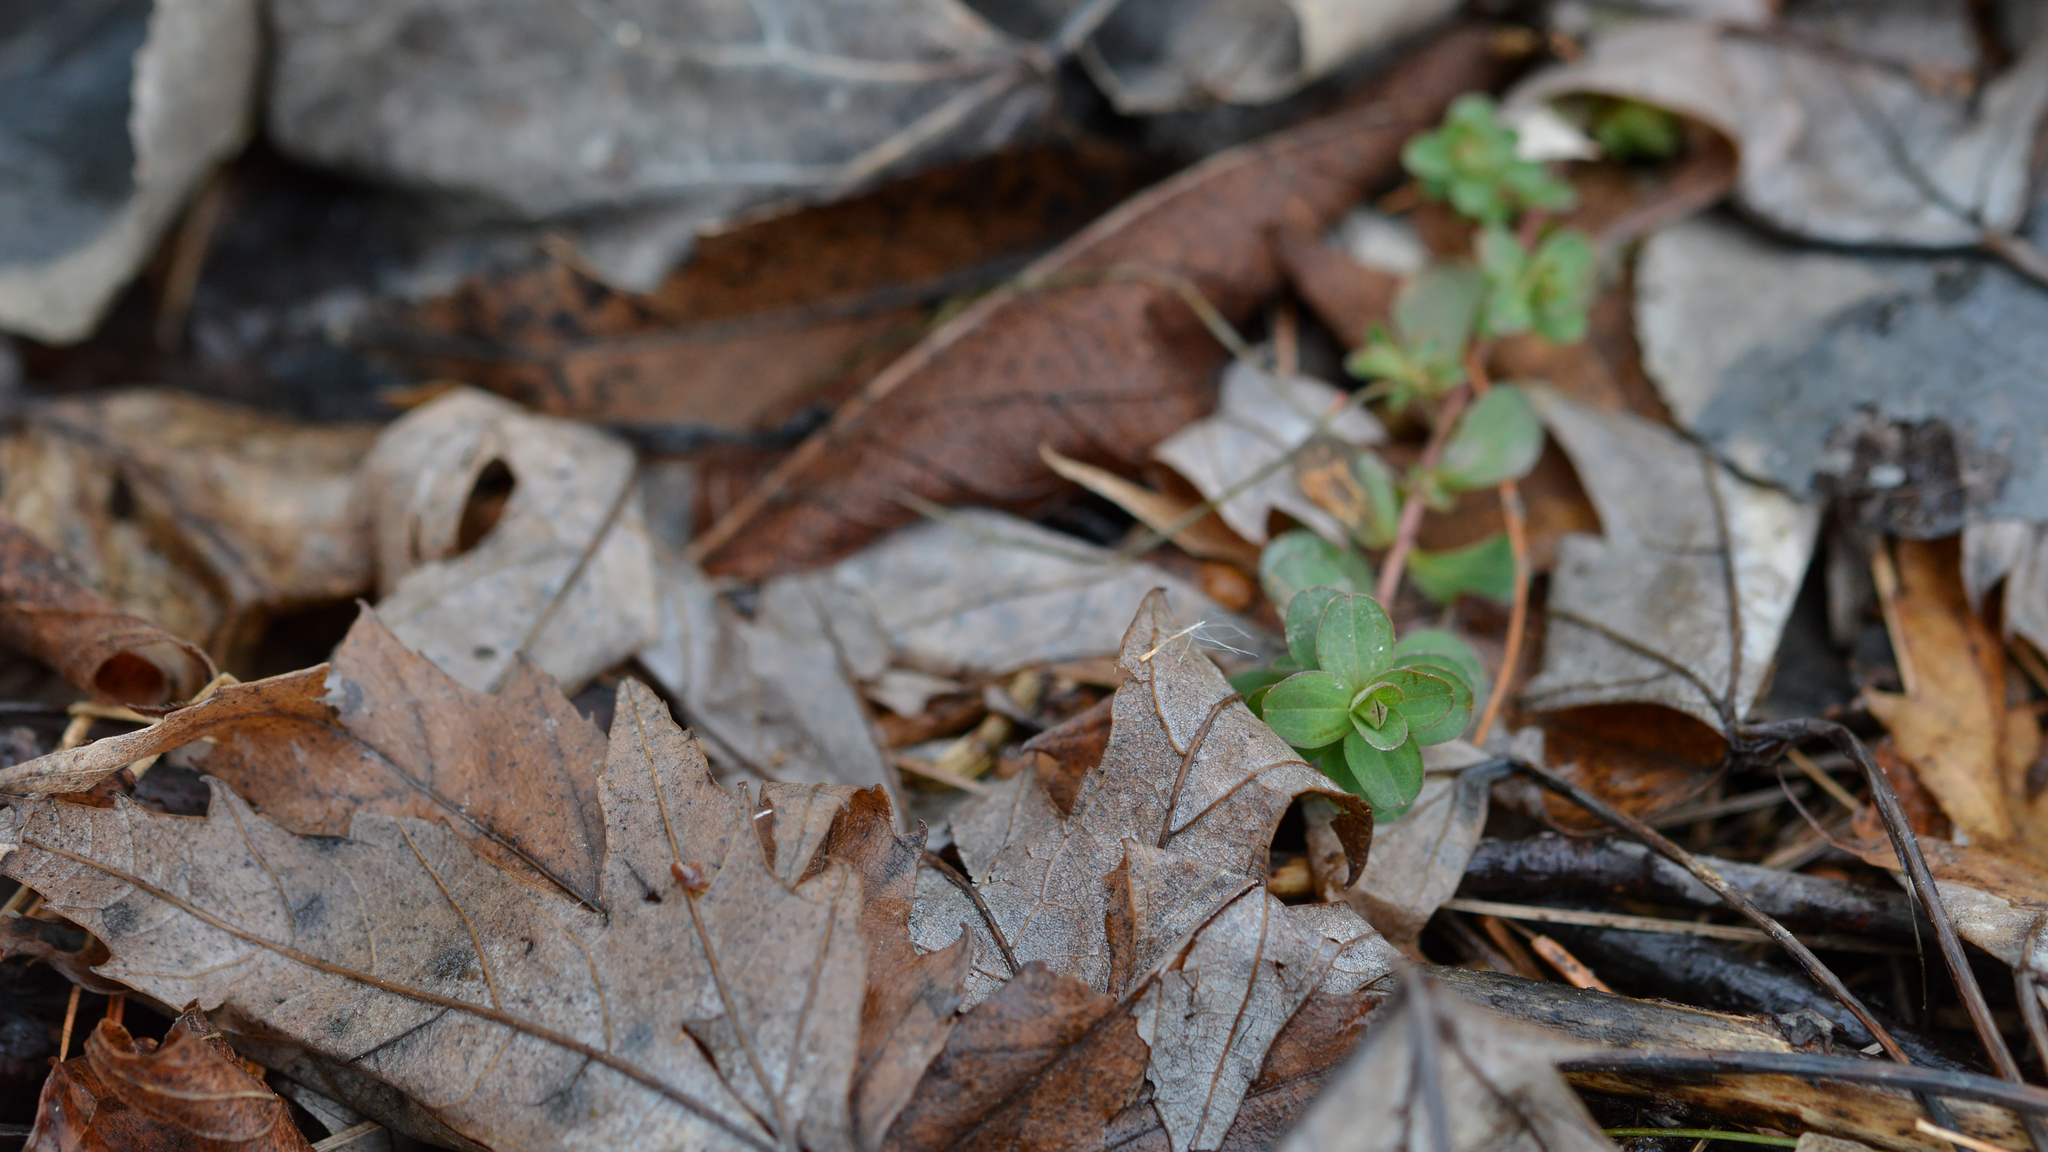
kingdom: Plantae
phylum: Tracheophyta
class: Magnoliopsida
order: Malpighiales
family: Hypericaceae
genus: Hypericum
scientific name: Hypericum perforatum
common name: Common st. johnswort
